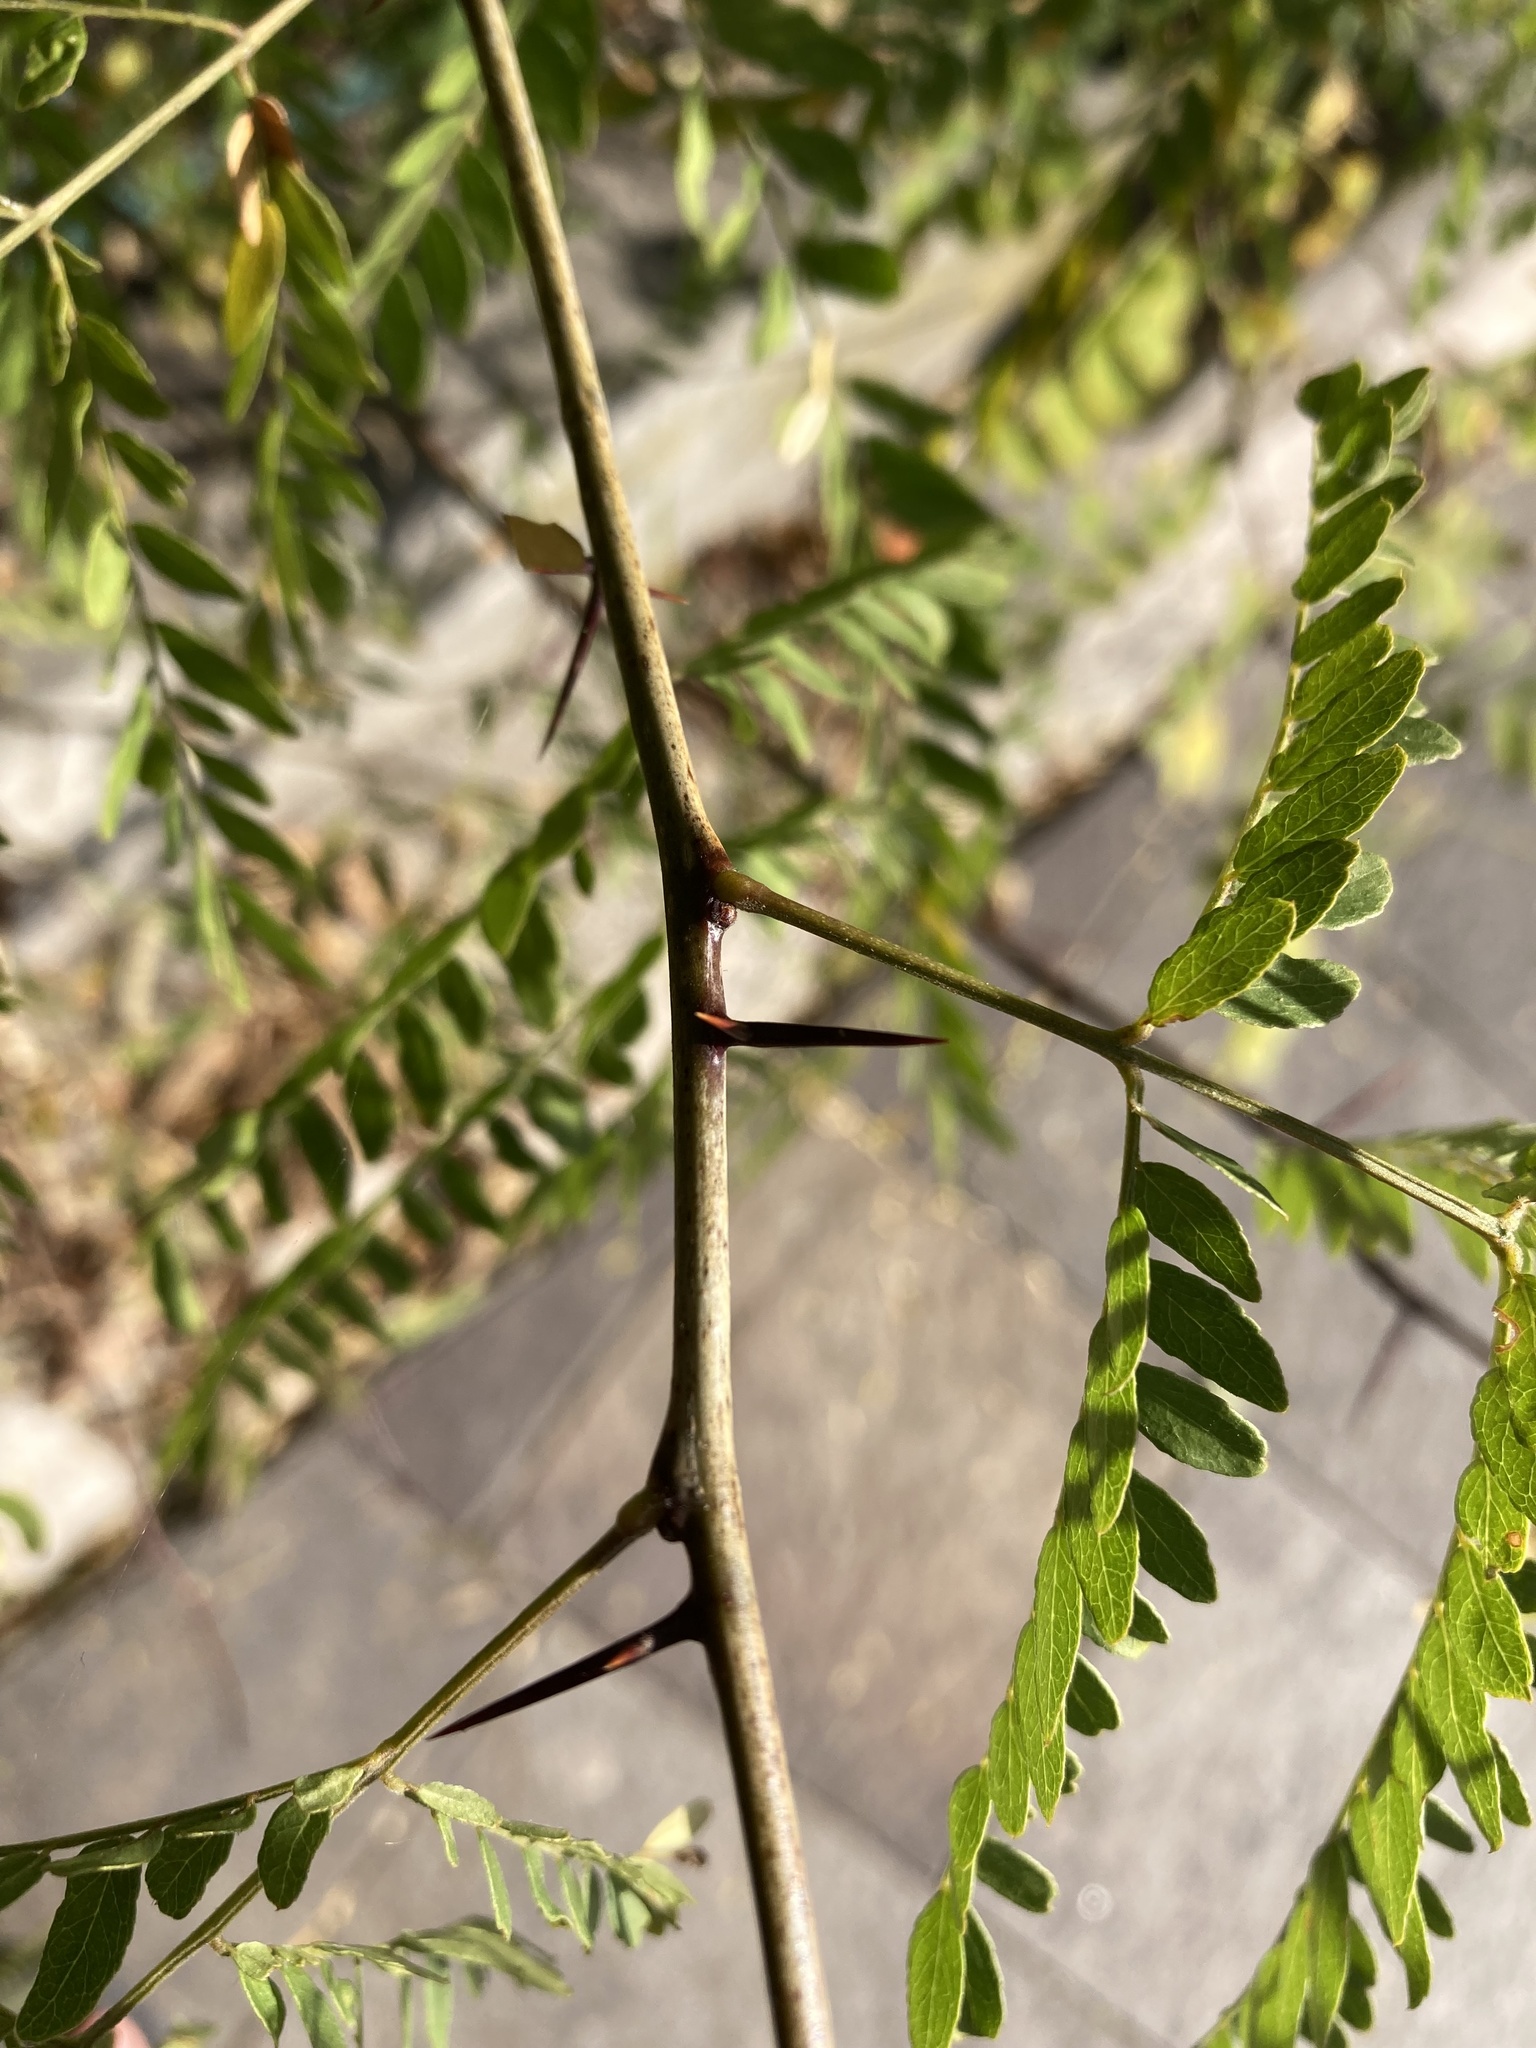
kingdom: Plantae
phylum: Tracheophyta
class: Magnoliopsida
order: Fabales
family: Fabaceae
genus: Gleditsia
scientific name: Gleditsia triacanthos
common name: Common honeylocust
